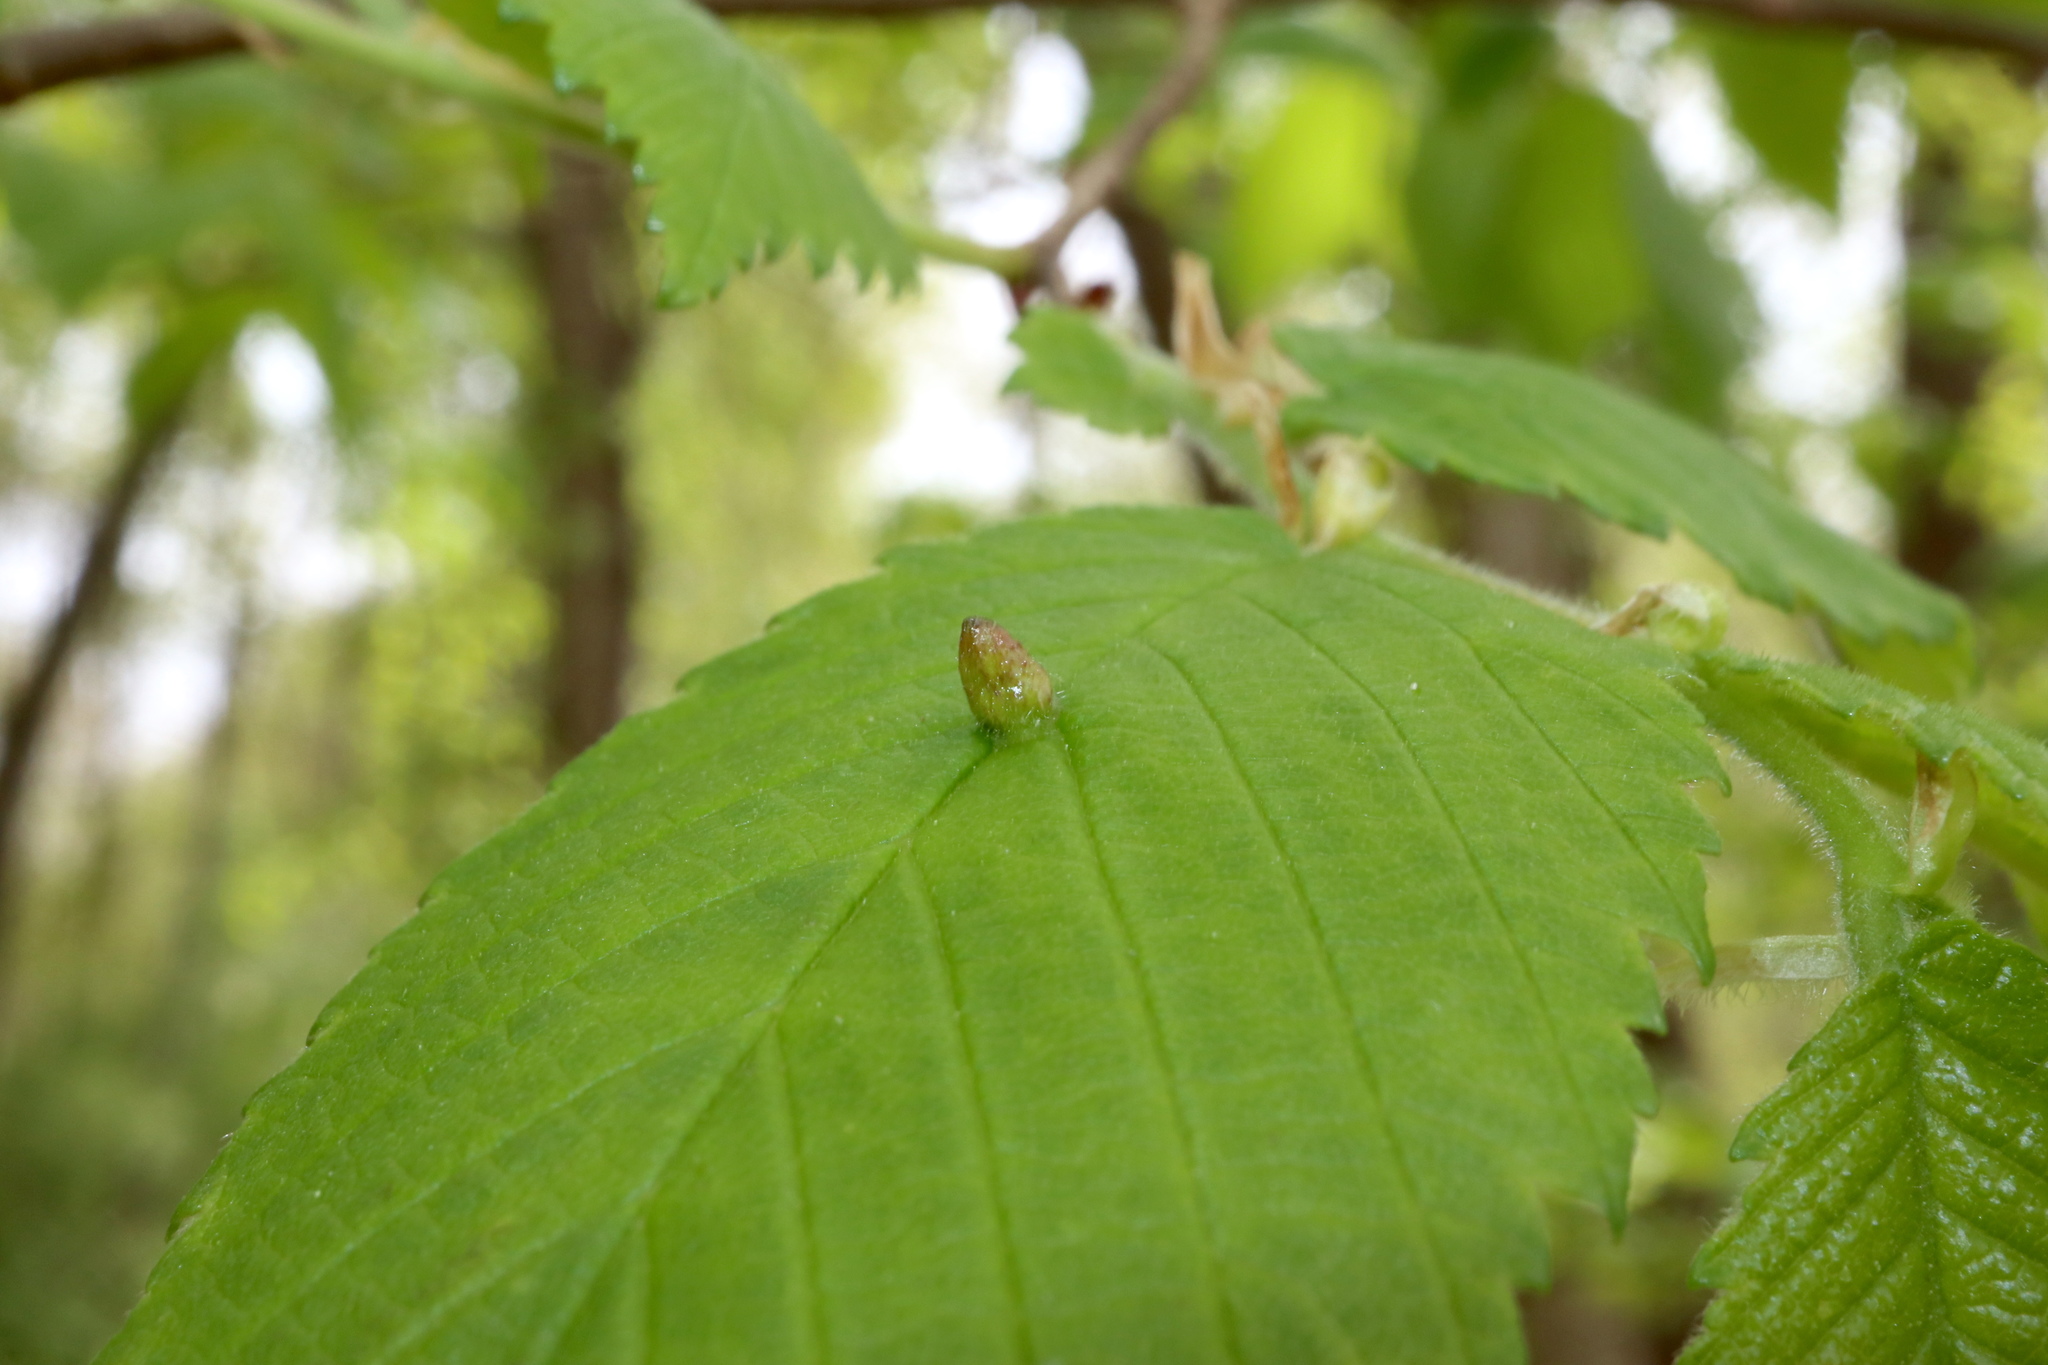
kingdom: Animalia
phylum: Arthropoda
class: Arachnida
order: Trombidiformes
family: Eriophyidae
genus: Aceria
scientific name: Aceria
